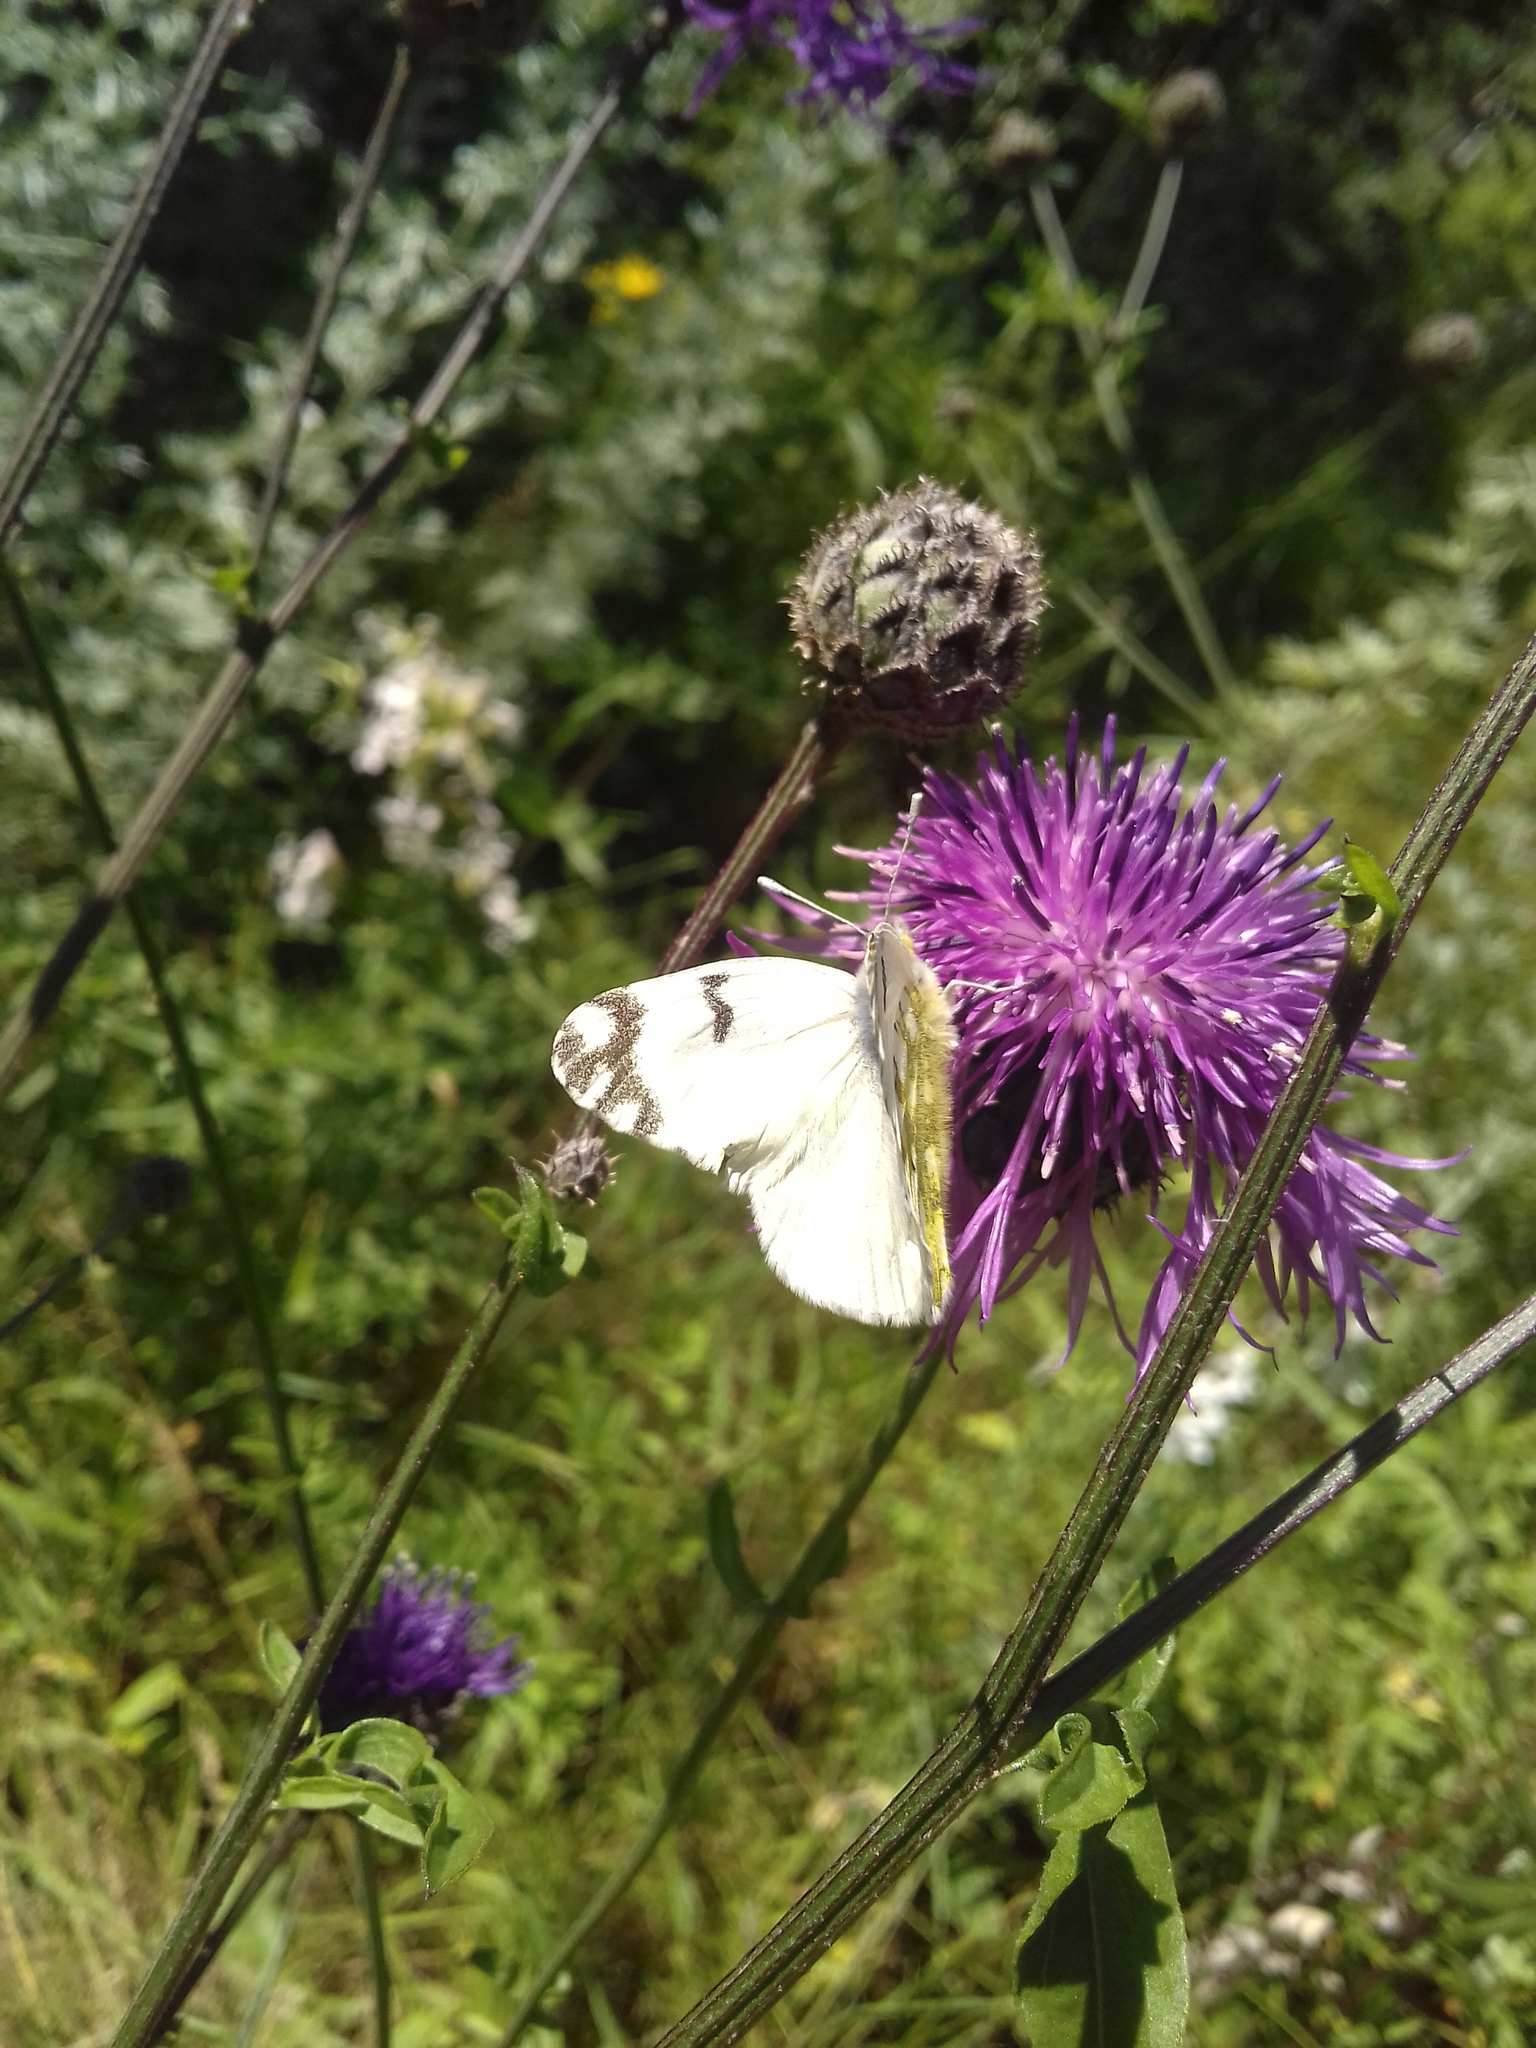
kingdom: Animalia
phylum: Arthropoda
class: Insecta
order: Lepidoptera
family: Pieridae
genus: Euchloe
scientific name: Euchloe ausonia
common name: Eastern dappled white
